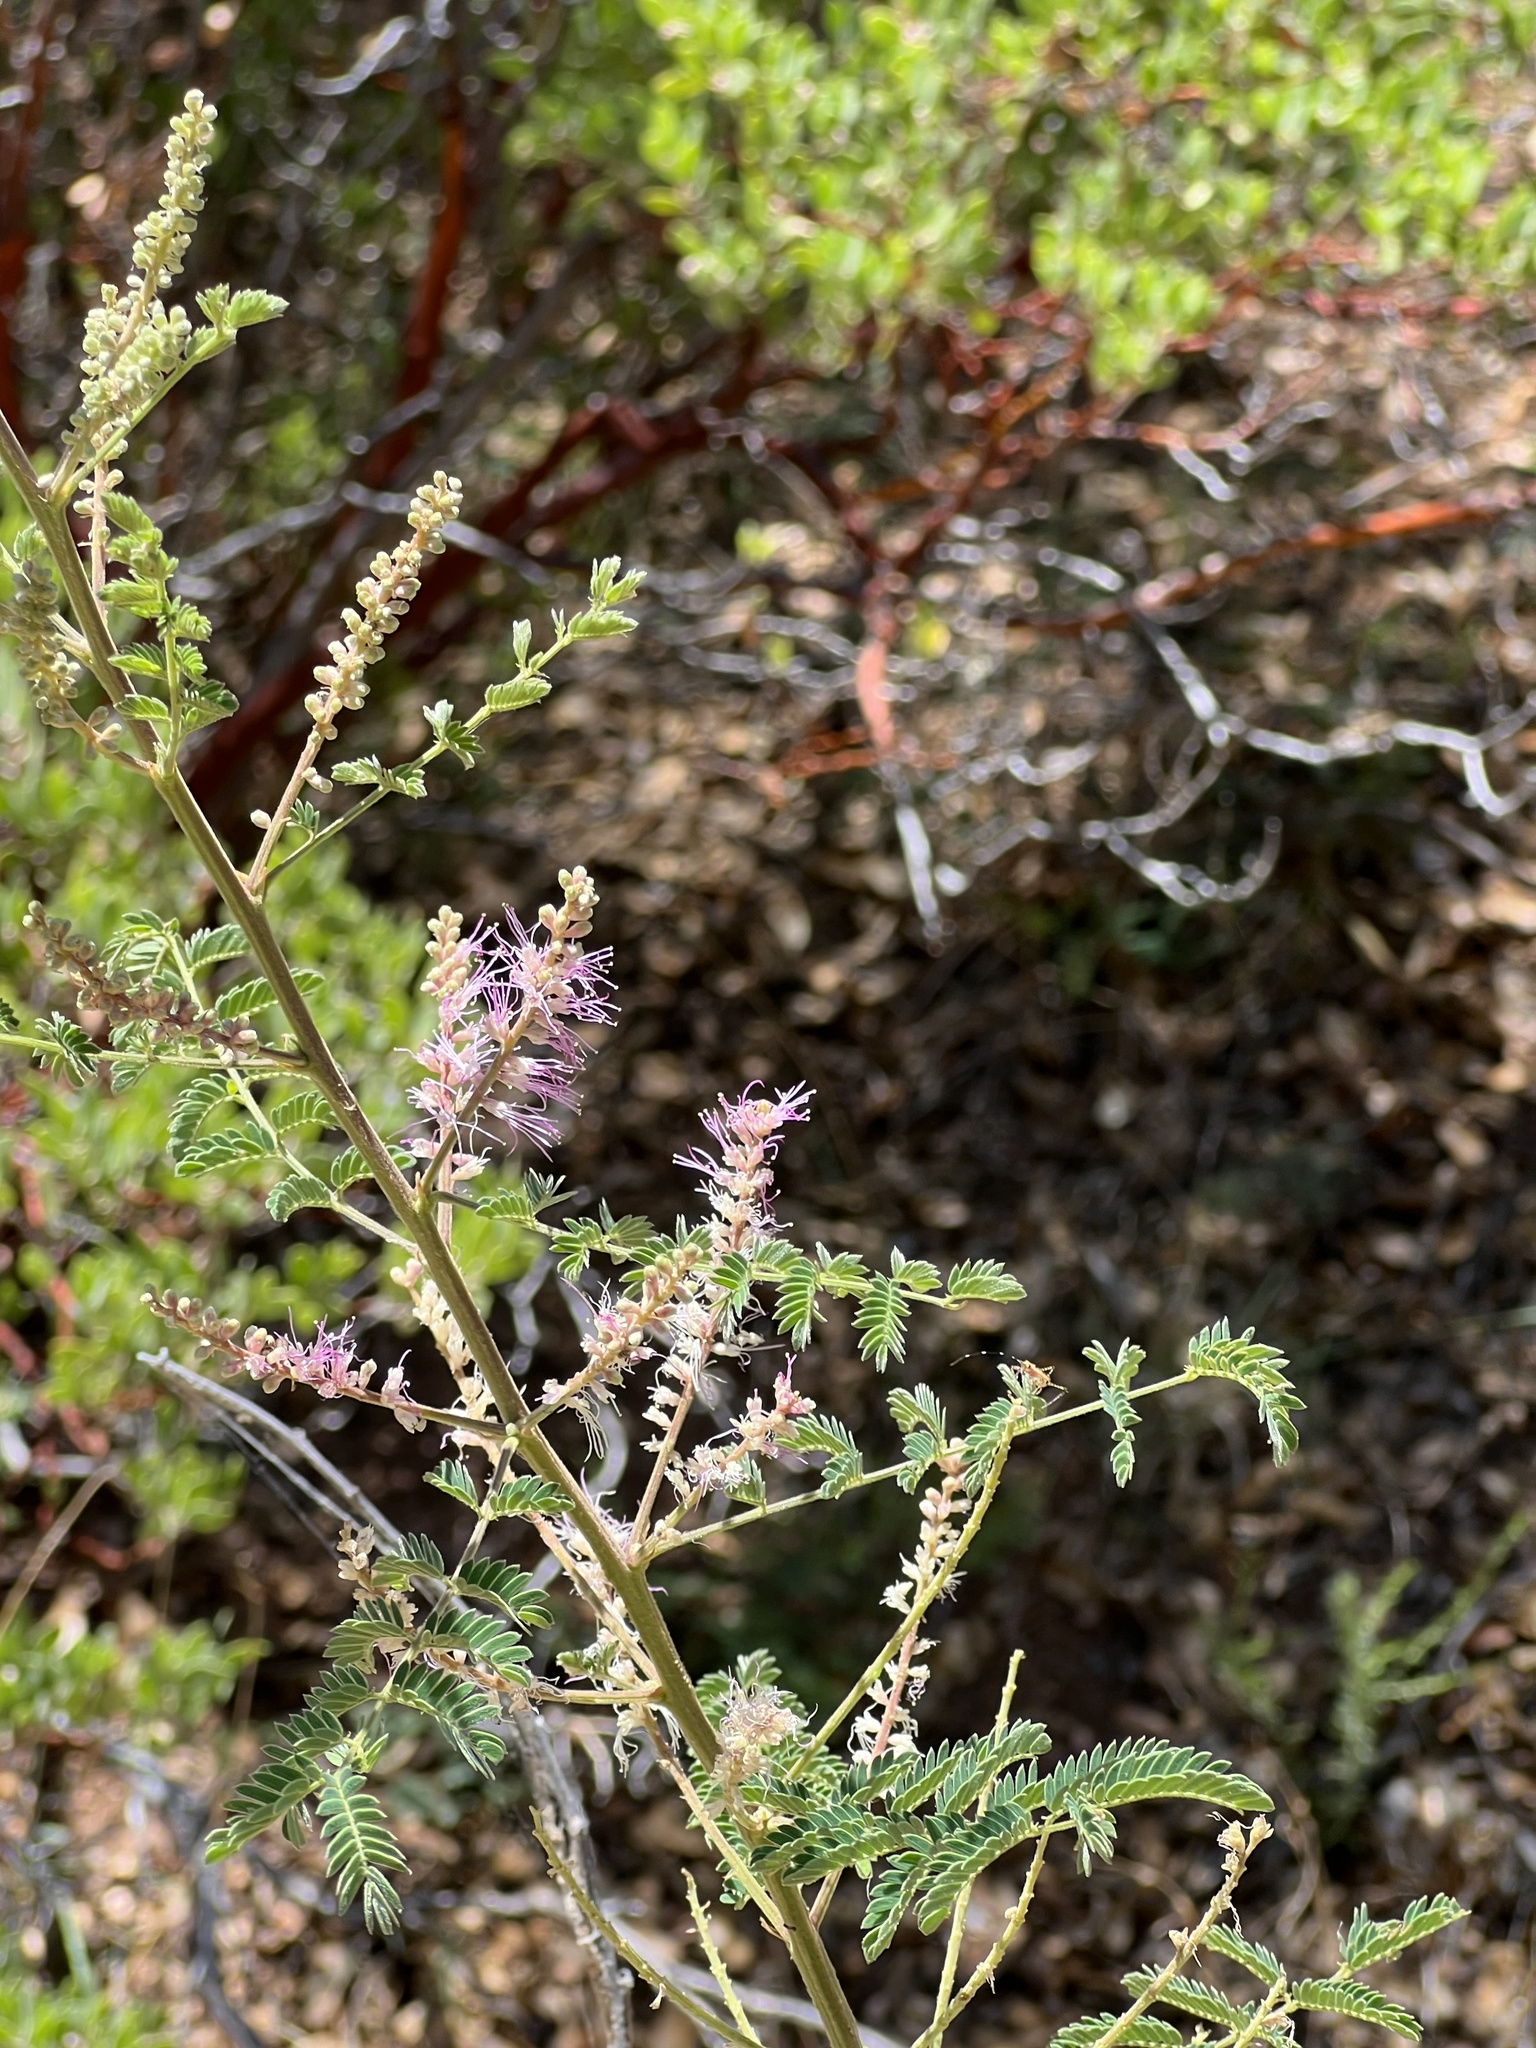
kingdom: Plantae
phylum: Tracheophyta
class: Magnoliopsida
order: Fabales
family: Fabaceae
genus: Mimosa
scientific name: Mimosa dysocarpa
